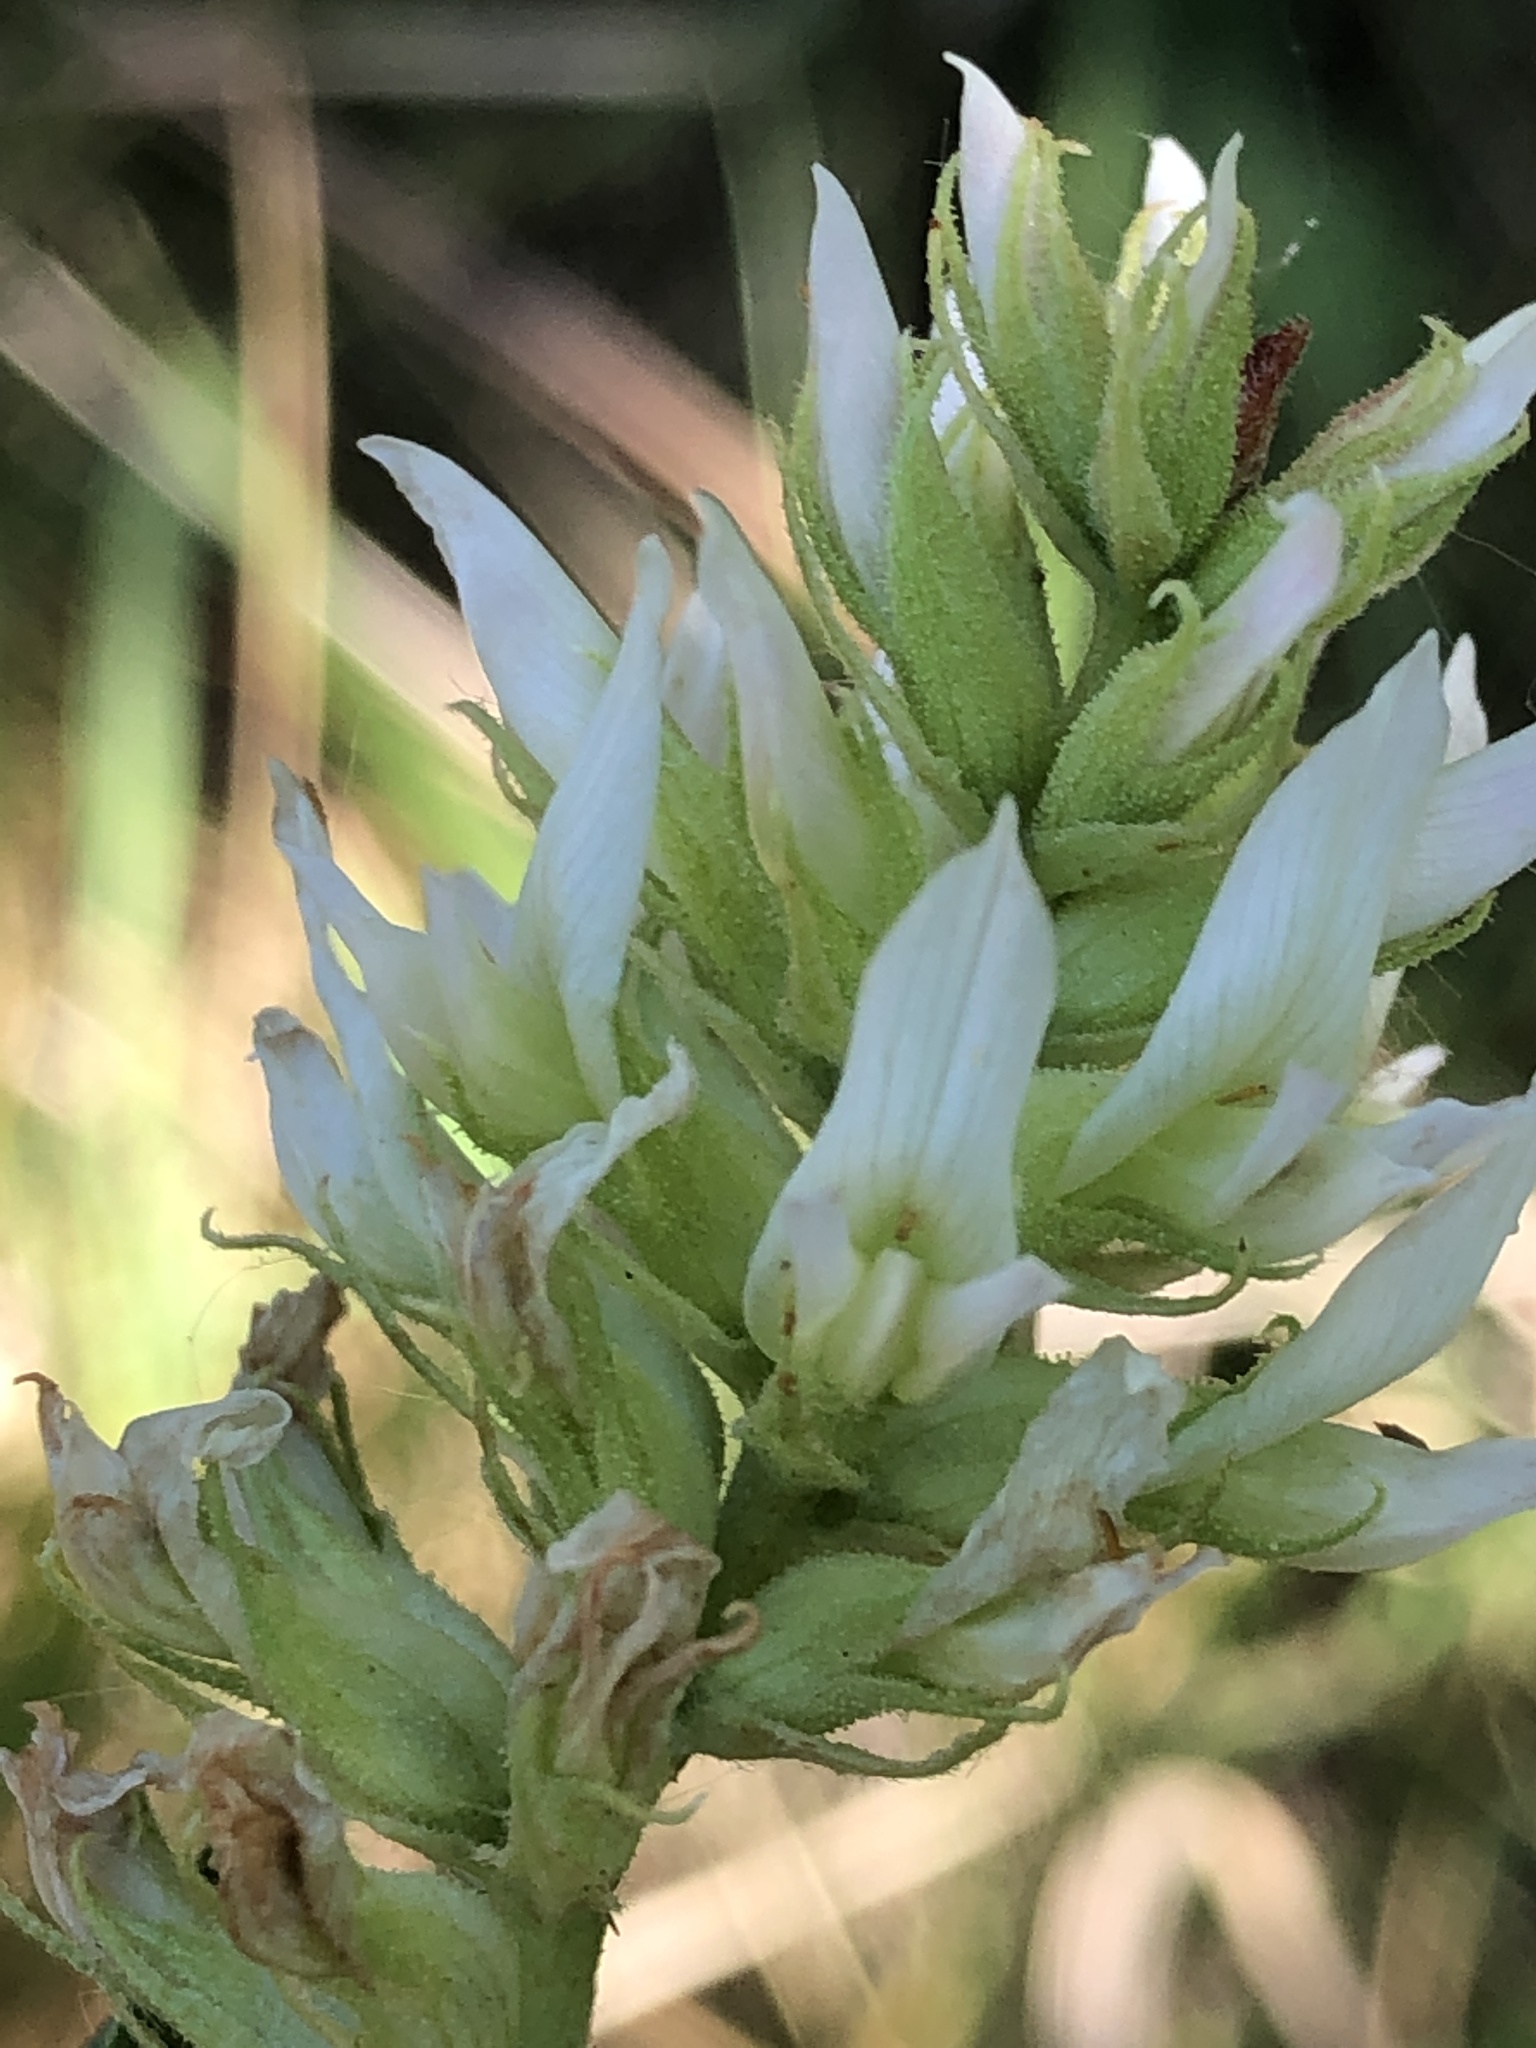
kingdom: Plantae
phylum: Tracheophyta
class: Magnoliopsida
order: Fabales
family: Fabaceae
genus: Glycyrrhiza
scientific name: Glycyrrhiza lepidota
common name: American liquorice
